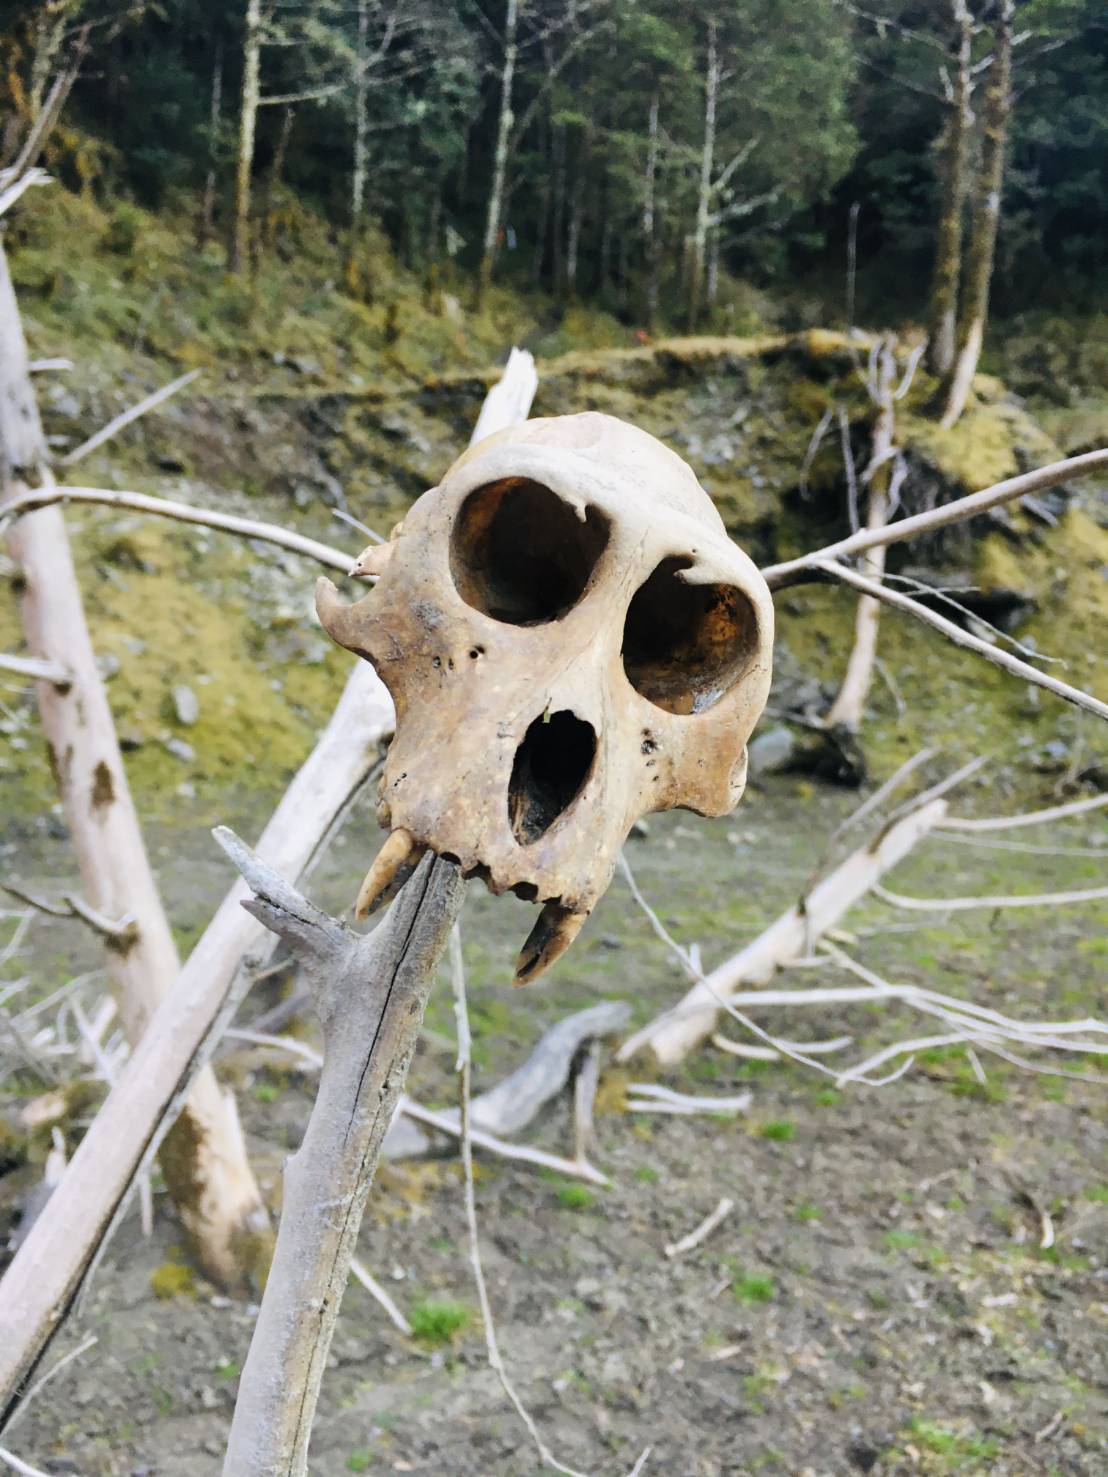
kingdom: Animalia
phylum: Chordata
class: Mammalia
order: Primates
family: Cercopithecidae
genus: Macaca
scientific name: Macaca cyclopis
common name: Formosan rock macaque
